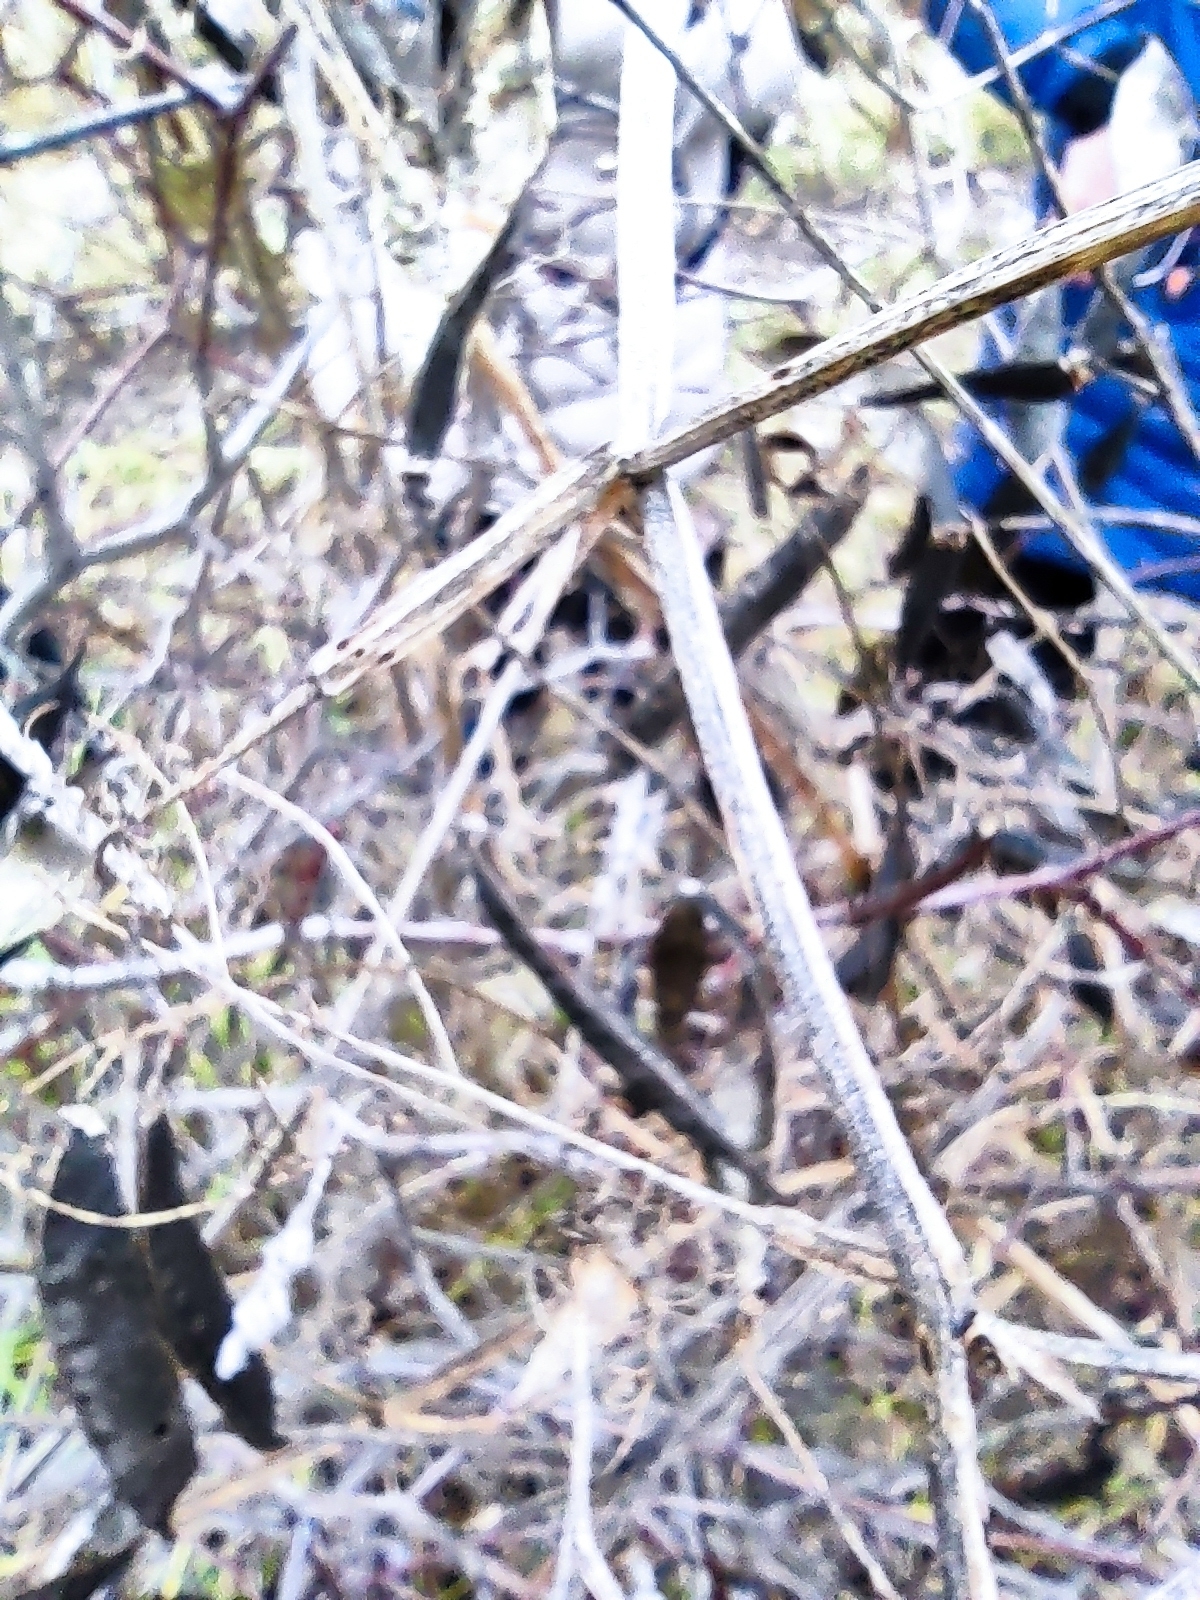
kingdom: Plantae
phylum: Tracheophyta
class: Magnoliopsida
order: Fabales
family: Fabaceae
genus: Lathyrus
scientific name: Lathyrus sylvestris
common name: Flat pea
